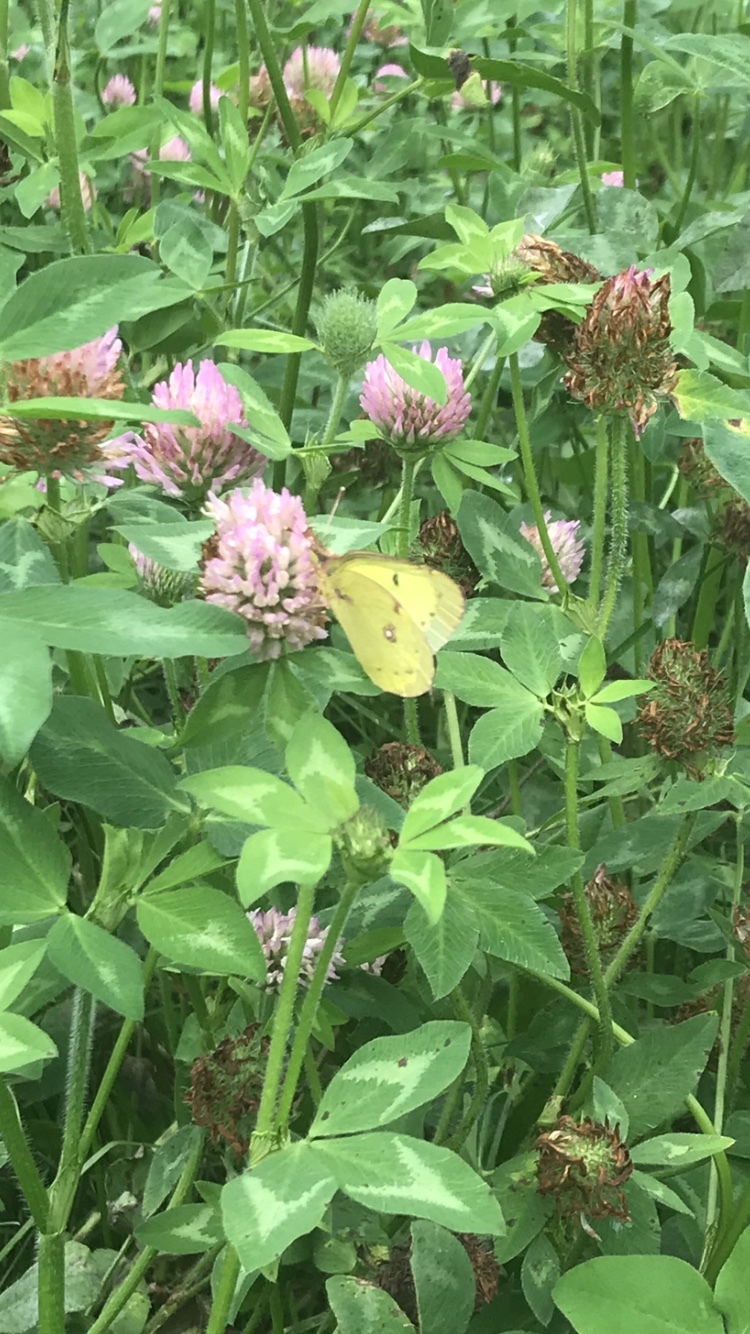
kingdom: Animalia
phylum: Arthropoda
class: Insecta
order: Lepidoptera
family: Pieridae
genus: Colias
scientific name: Colias philodice
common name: Clouded sulphur
